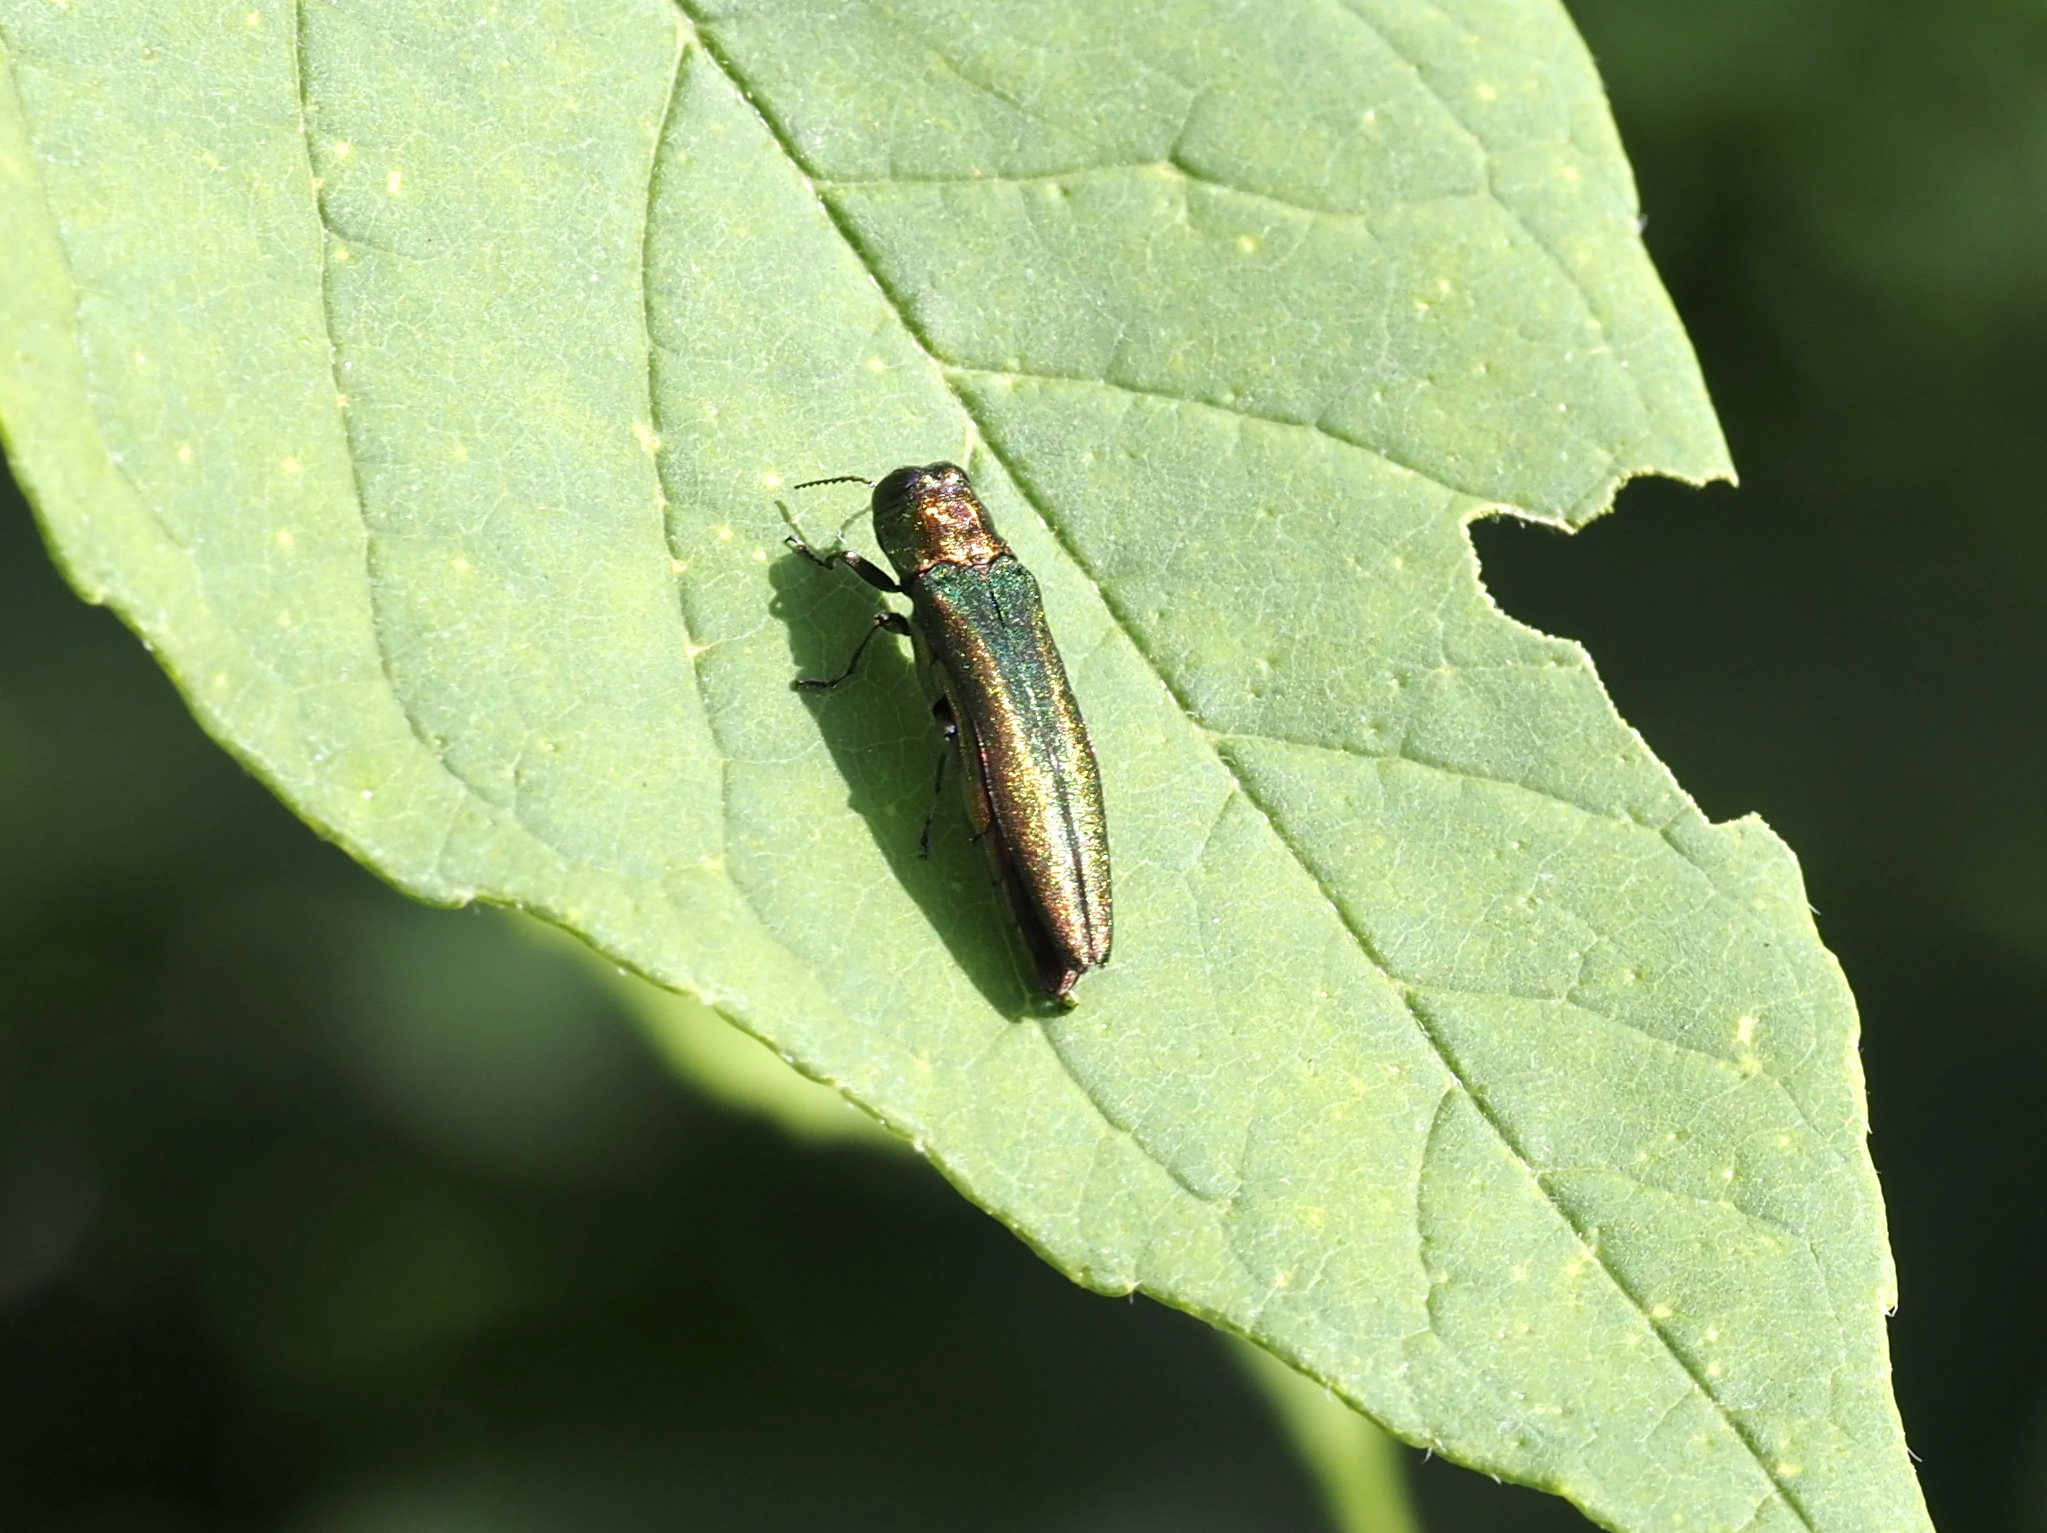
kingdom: Animalia
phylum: Arthropoda
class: Insecta
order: Coleoptera
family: Buprestidae
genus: Agrilus
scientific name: Agrilus planipennis
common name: Emerald ash borer
